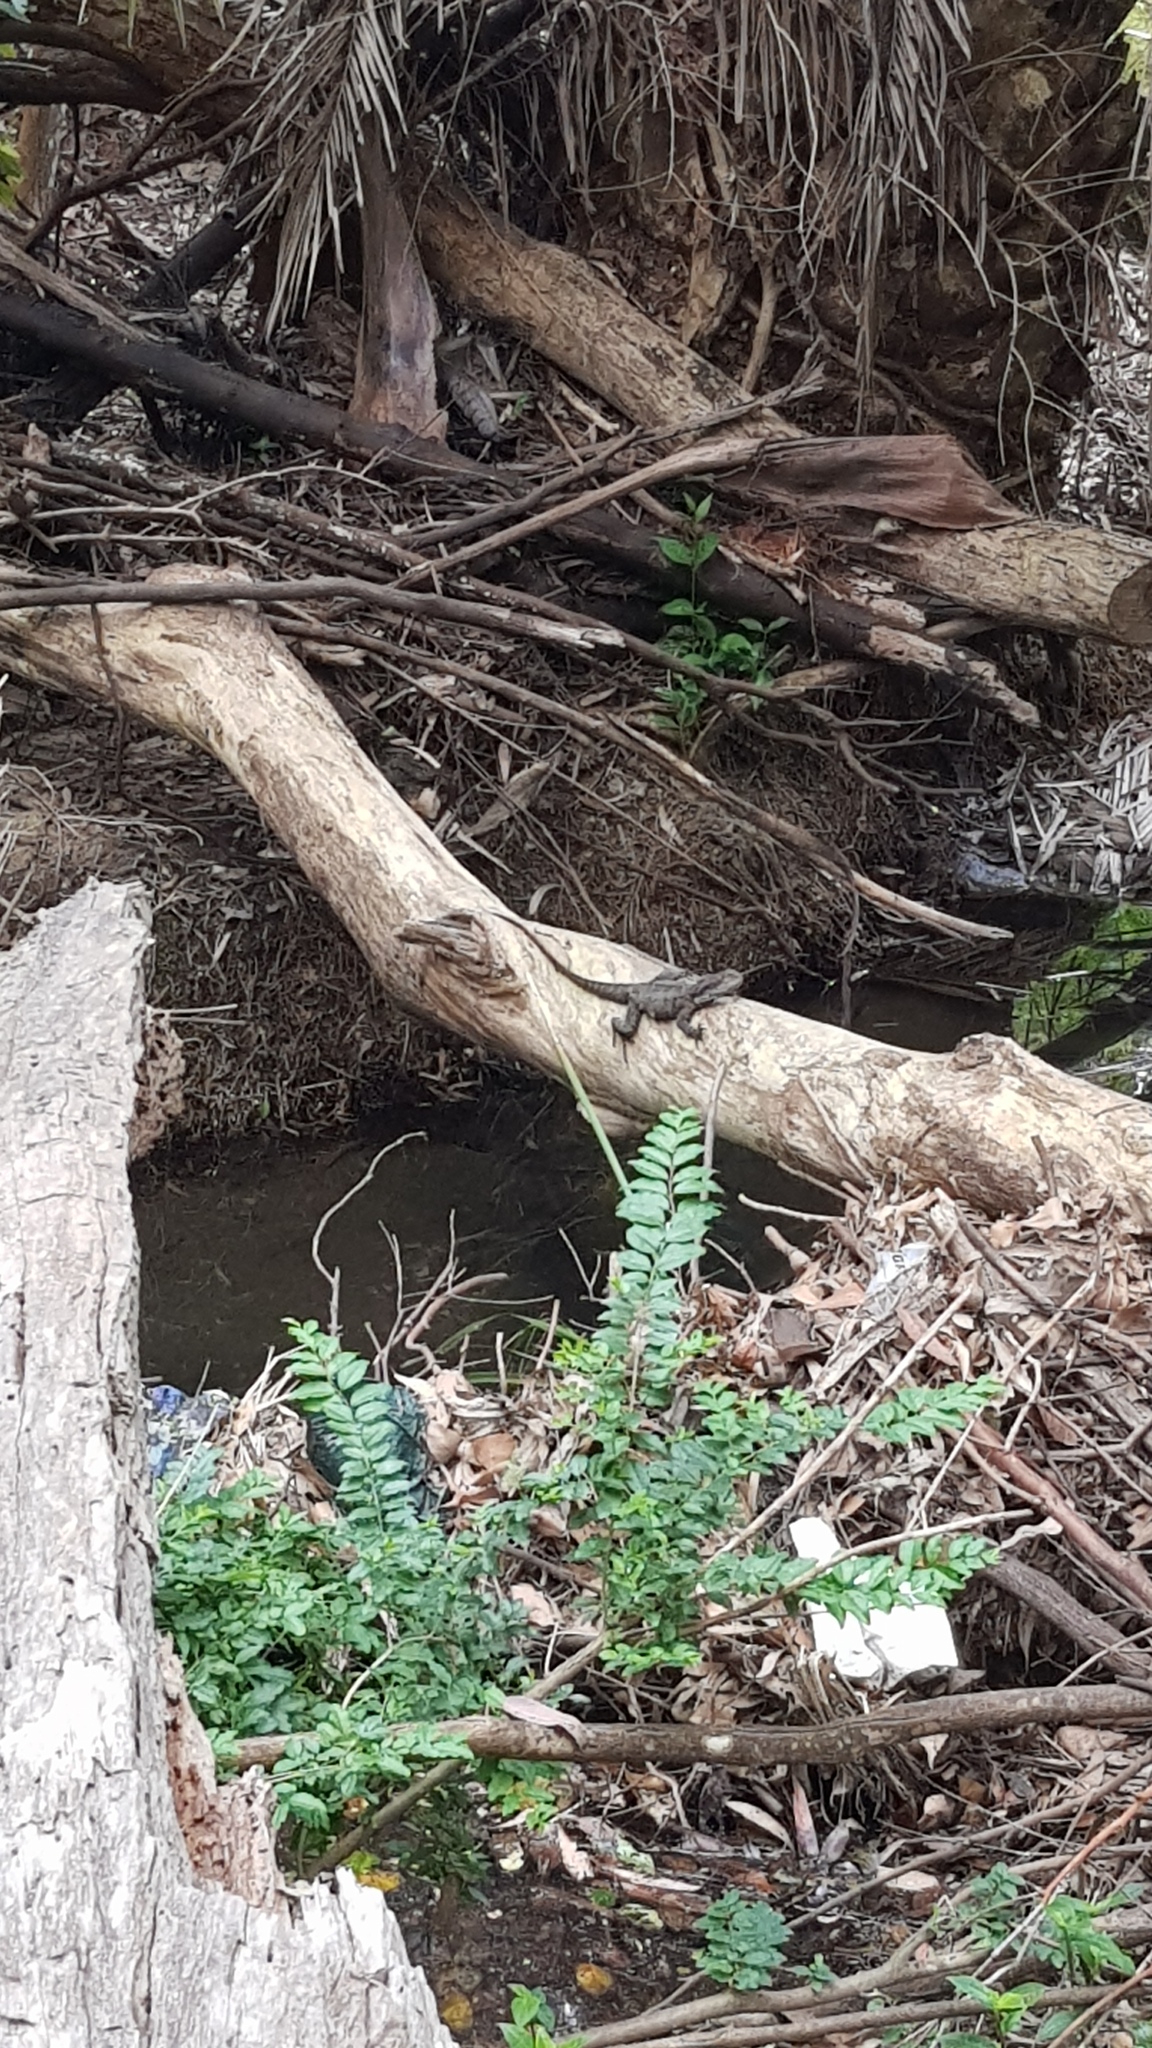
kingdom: Animalia
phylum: Chordata
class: Squamata
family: Agamidae
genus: Intellagama
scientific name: Intellagama lesueurii
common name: Eastern water dragon
